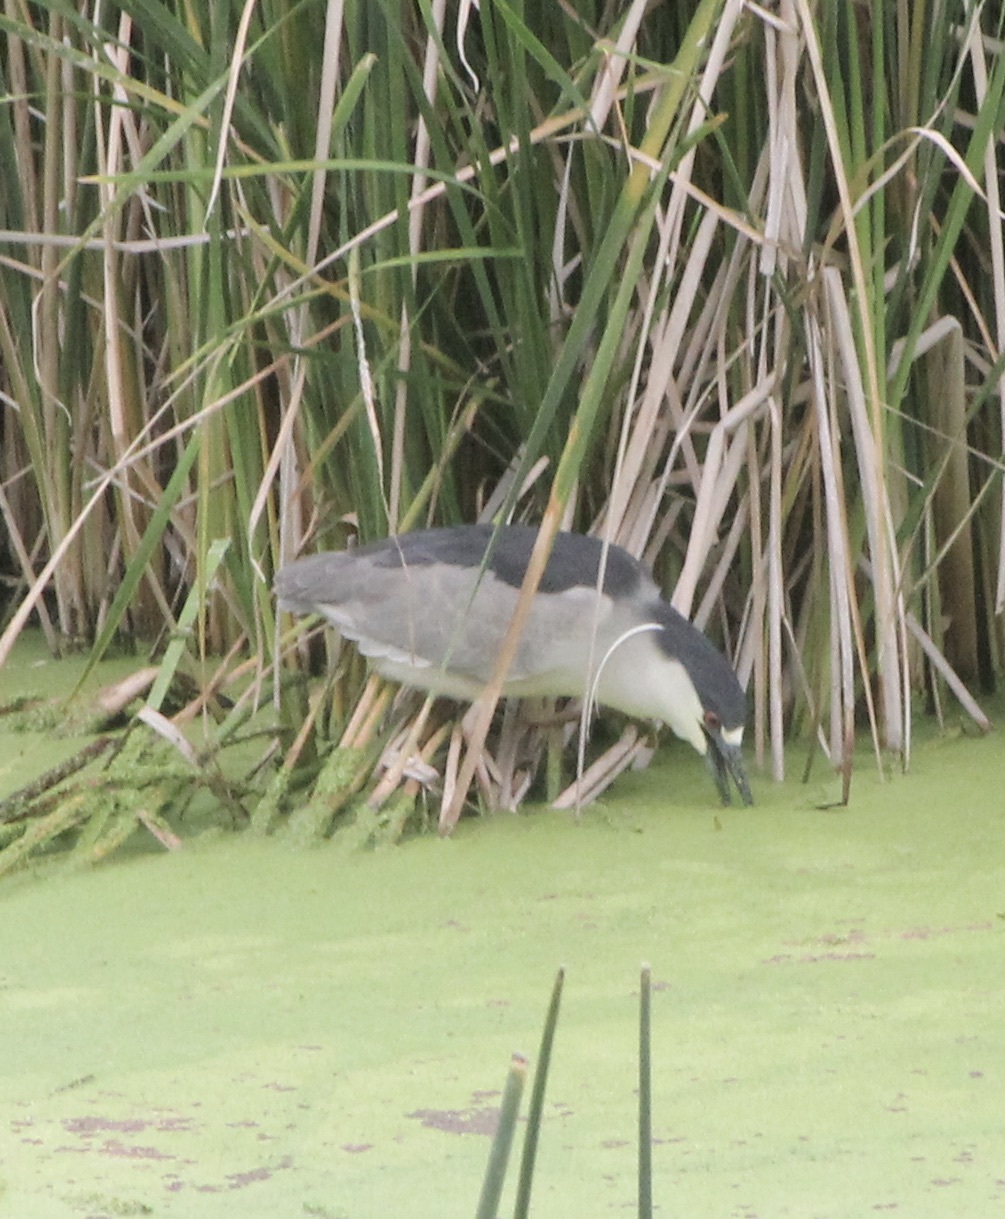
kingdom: Animalia
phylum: Chordata
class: Aves
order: Pelecaniformes
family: Ardeidae
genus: Nycticorax
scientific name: Nycticorax nycticorax
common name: Black-crowned night heron
